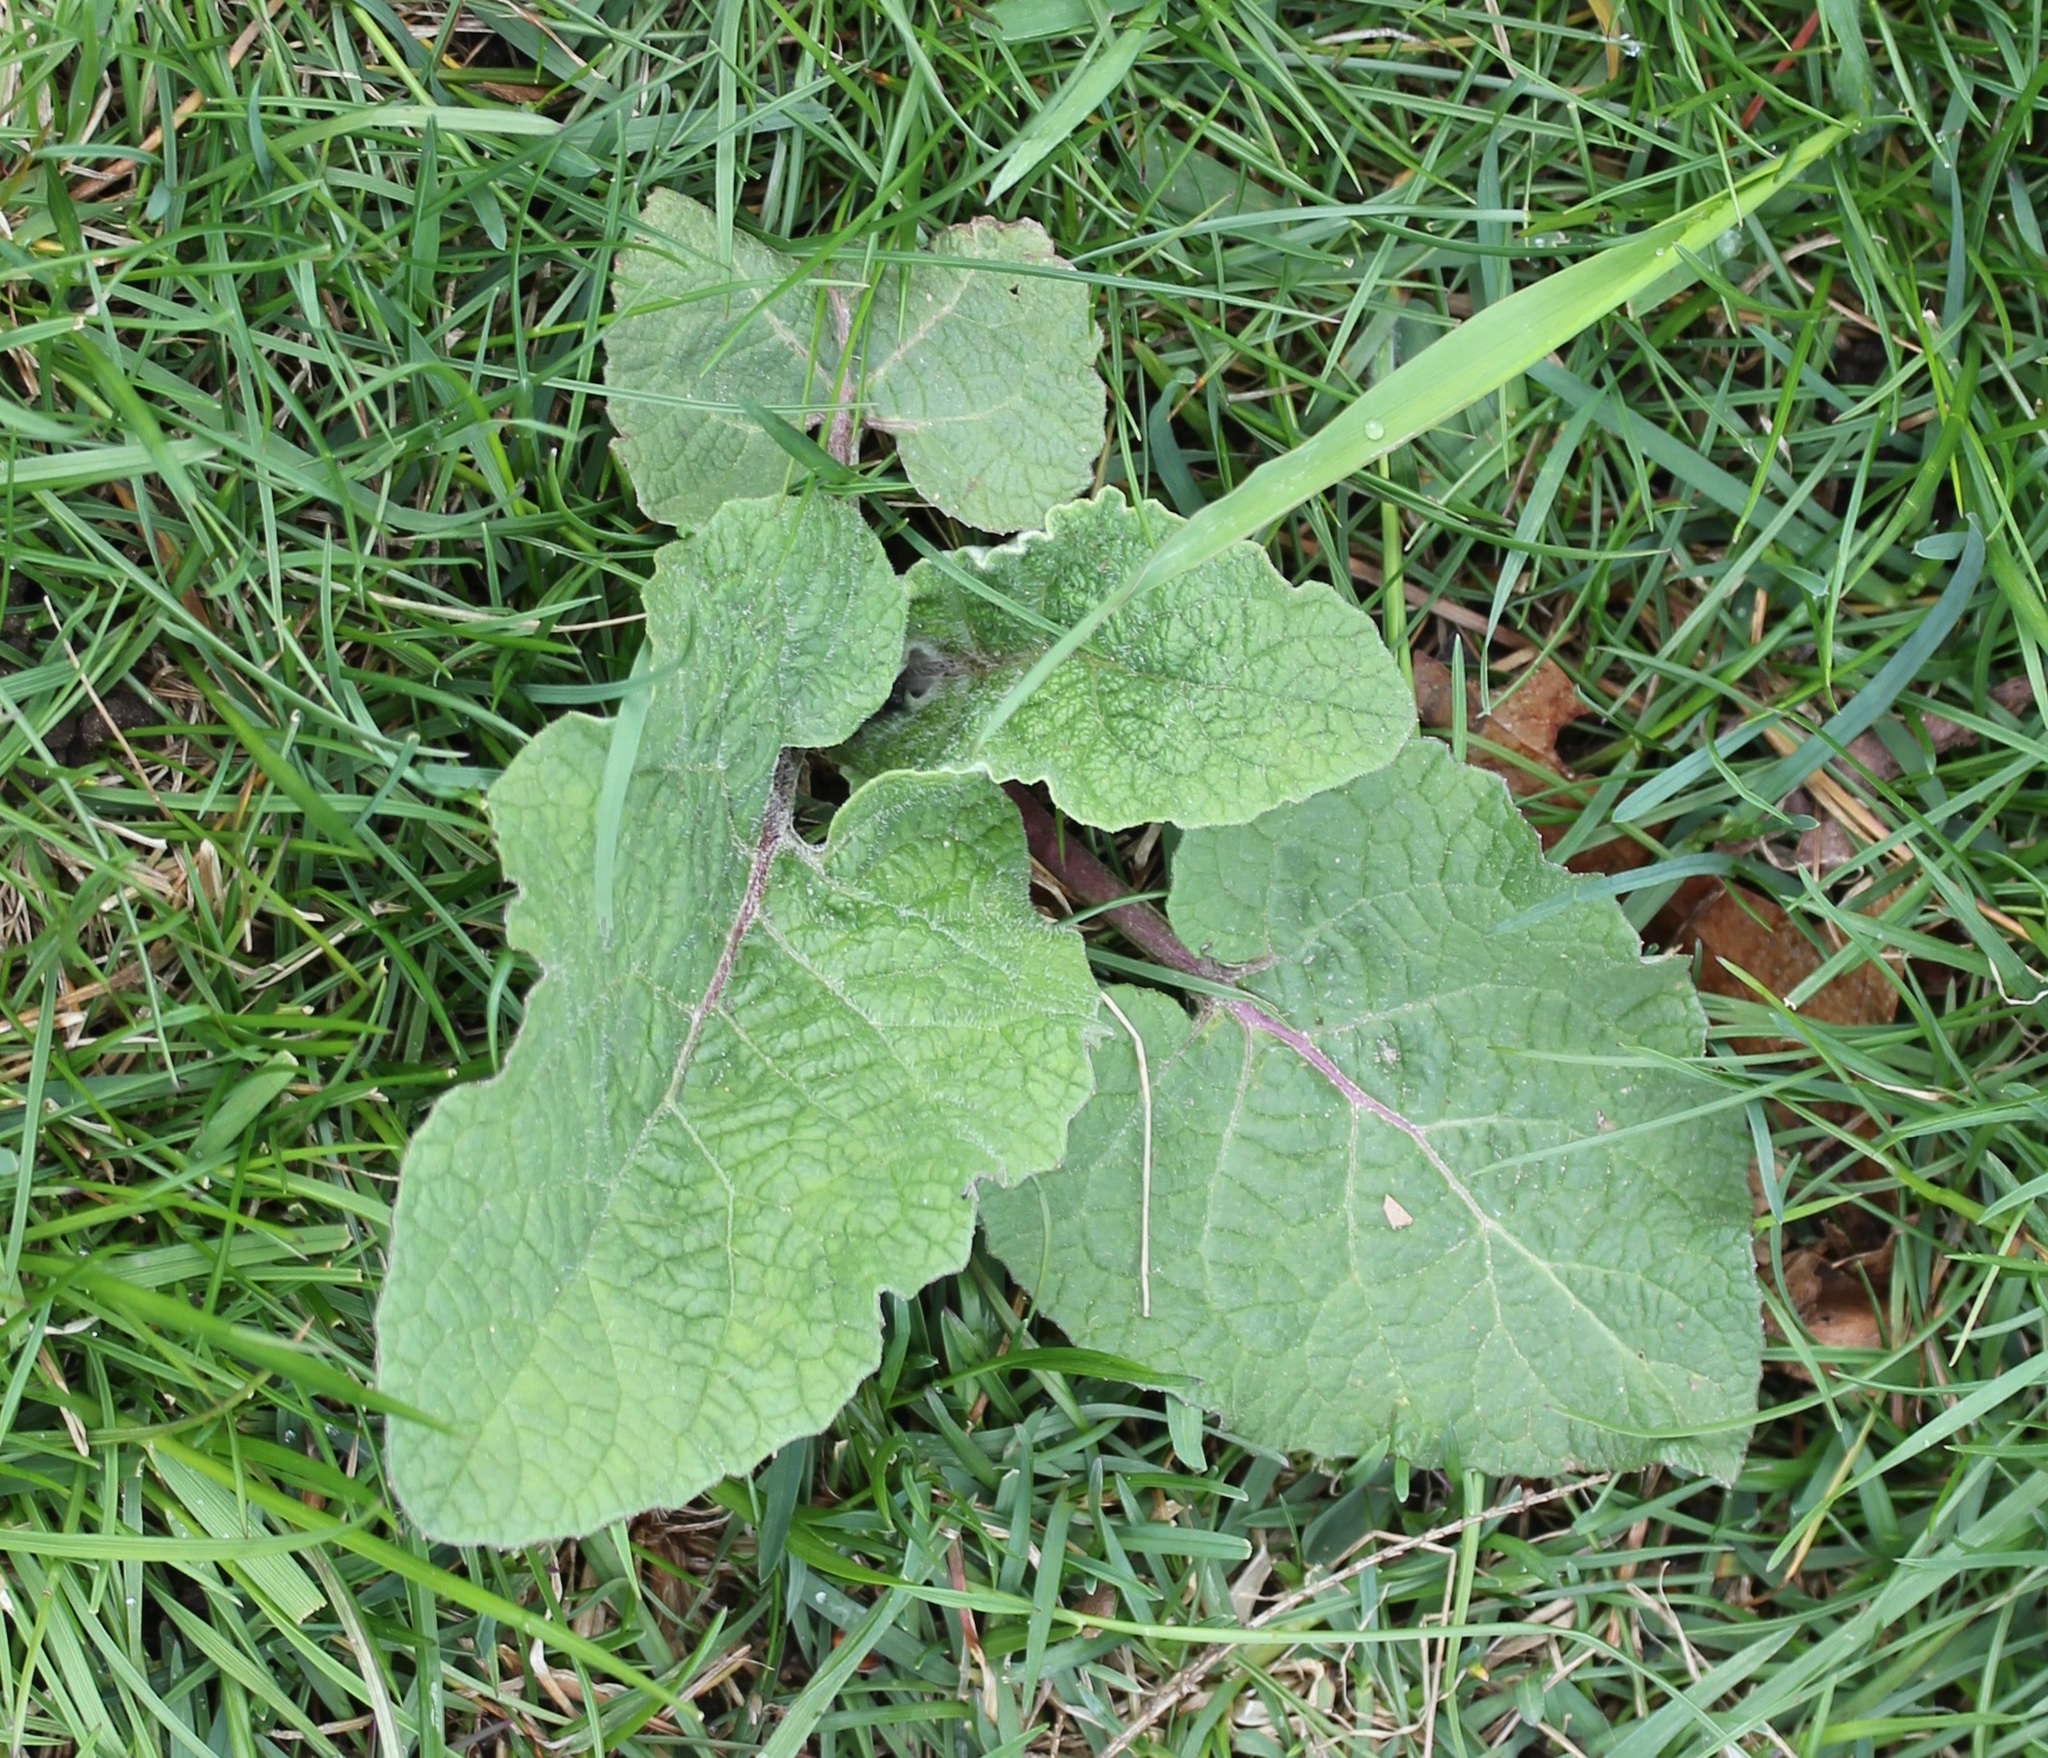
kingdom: Plantae
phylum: Tracheophyta
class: Magnoliopsida
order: Asterales
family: Asteraceae
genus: Arctium
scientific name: Arctium
